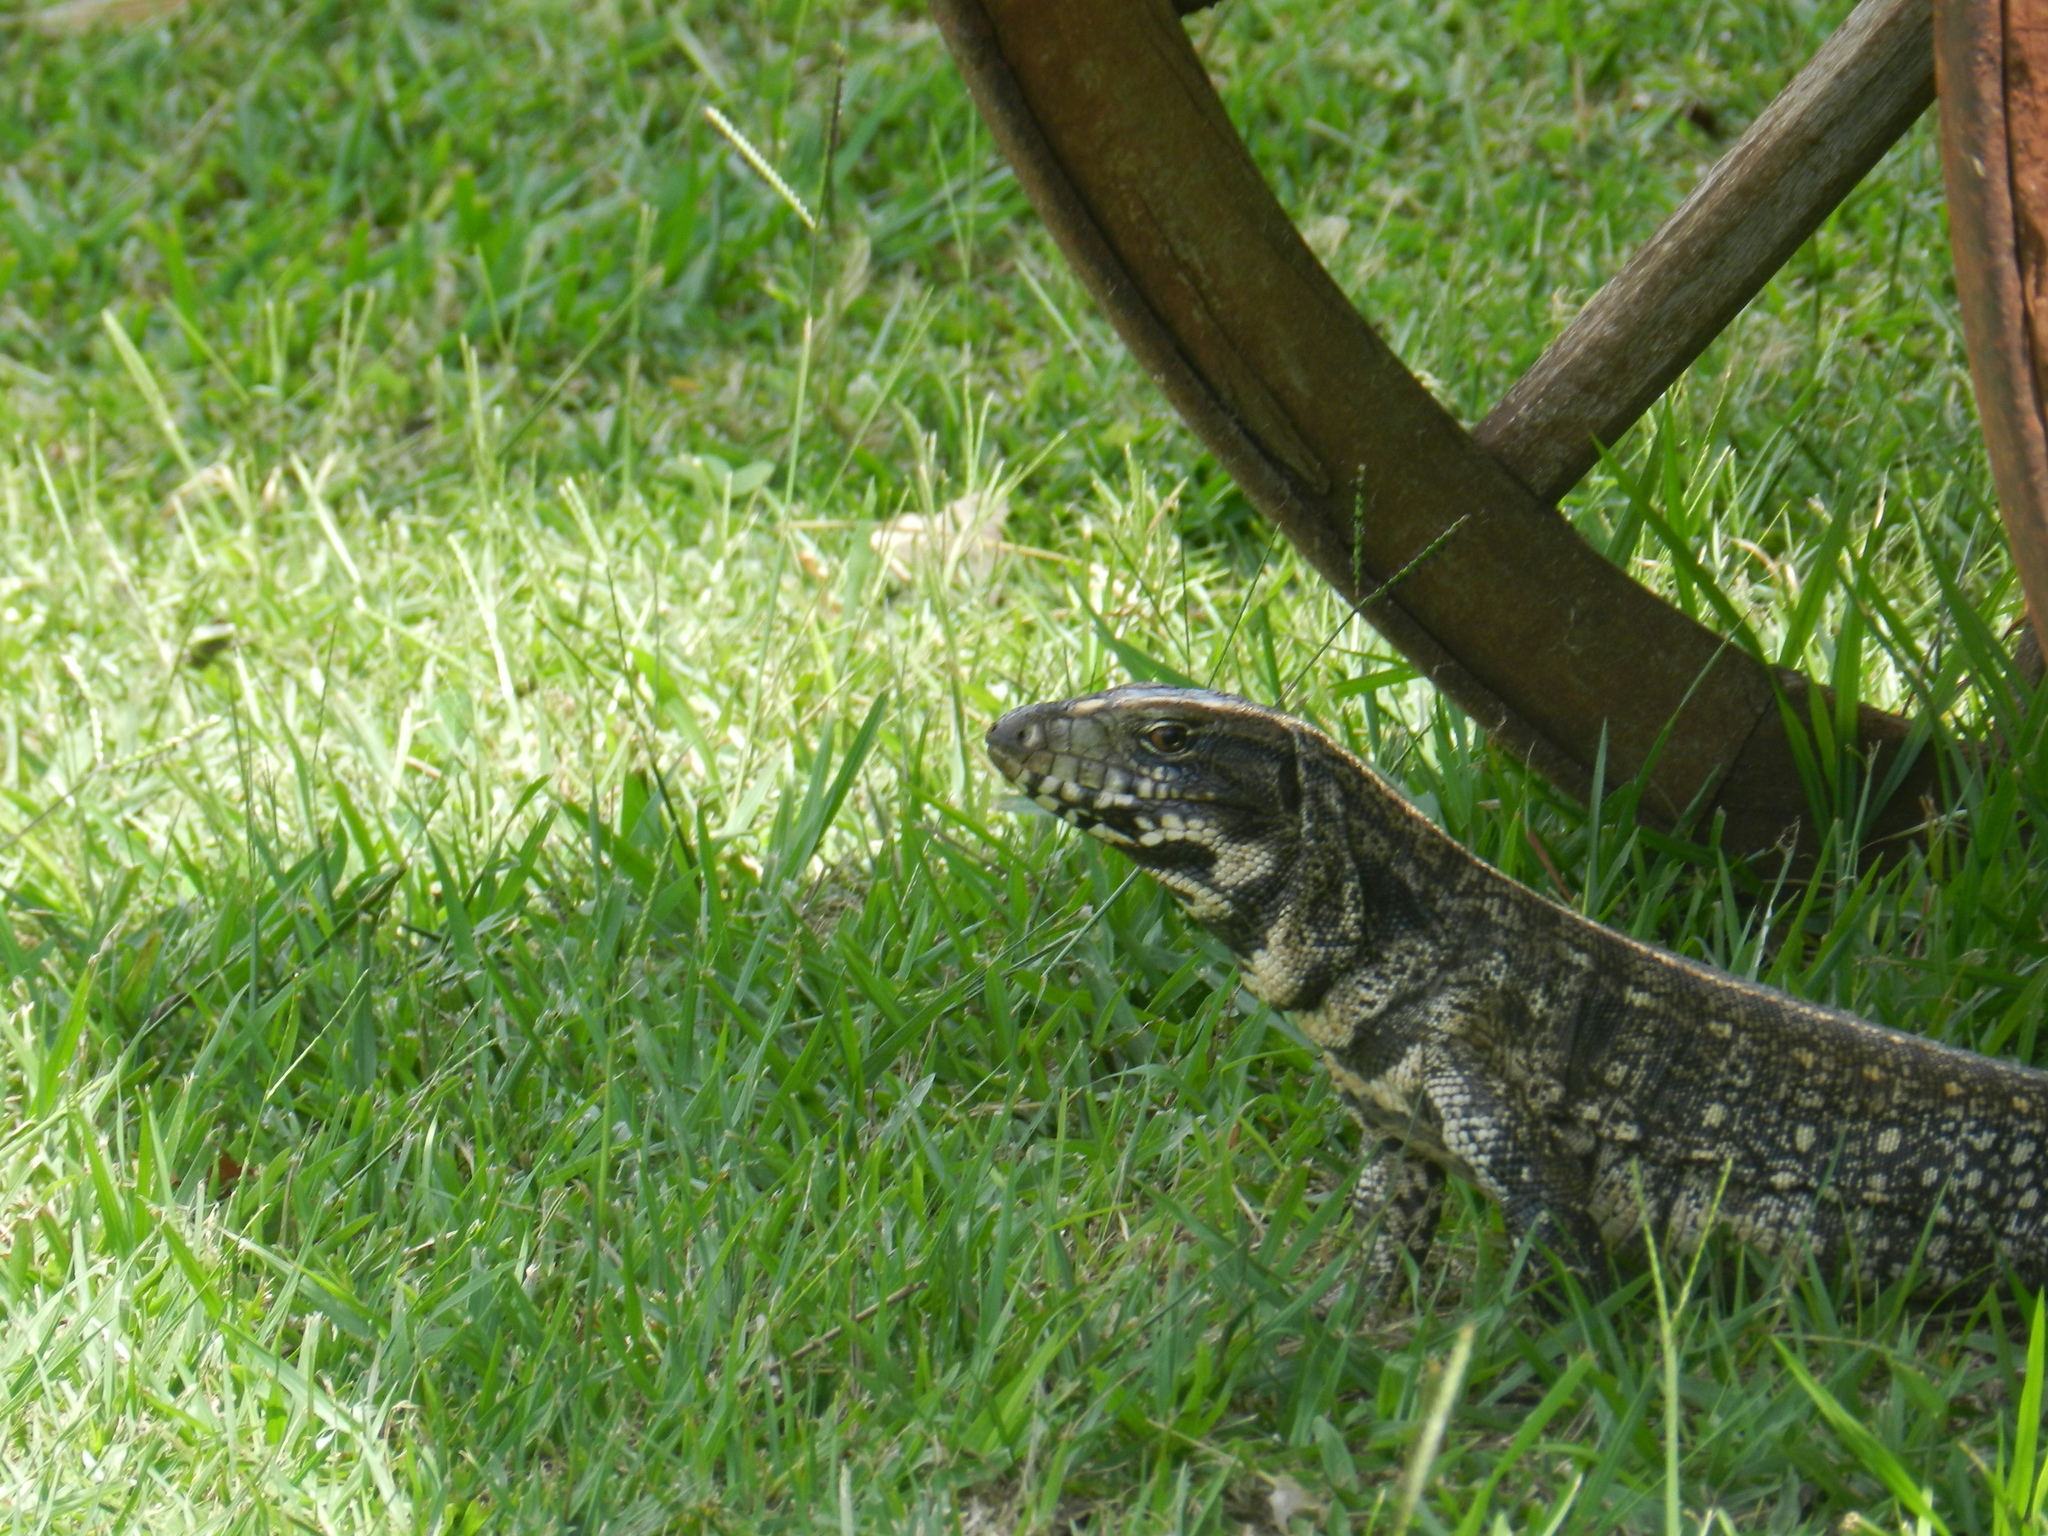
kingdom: Animalia
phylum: Chordata
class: Squamata
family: Teiidae
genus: Salvator
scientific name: Salvator merianae
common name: Argentine black and white tegu
